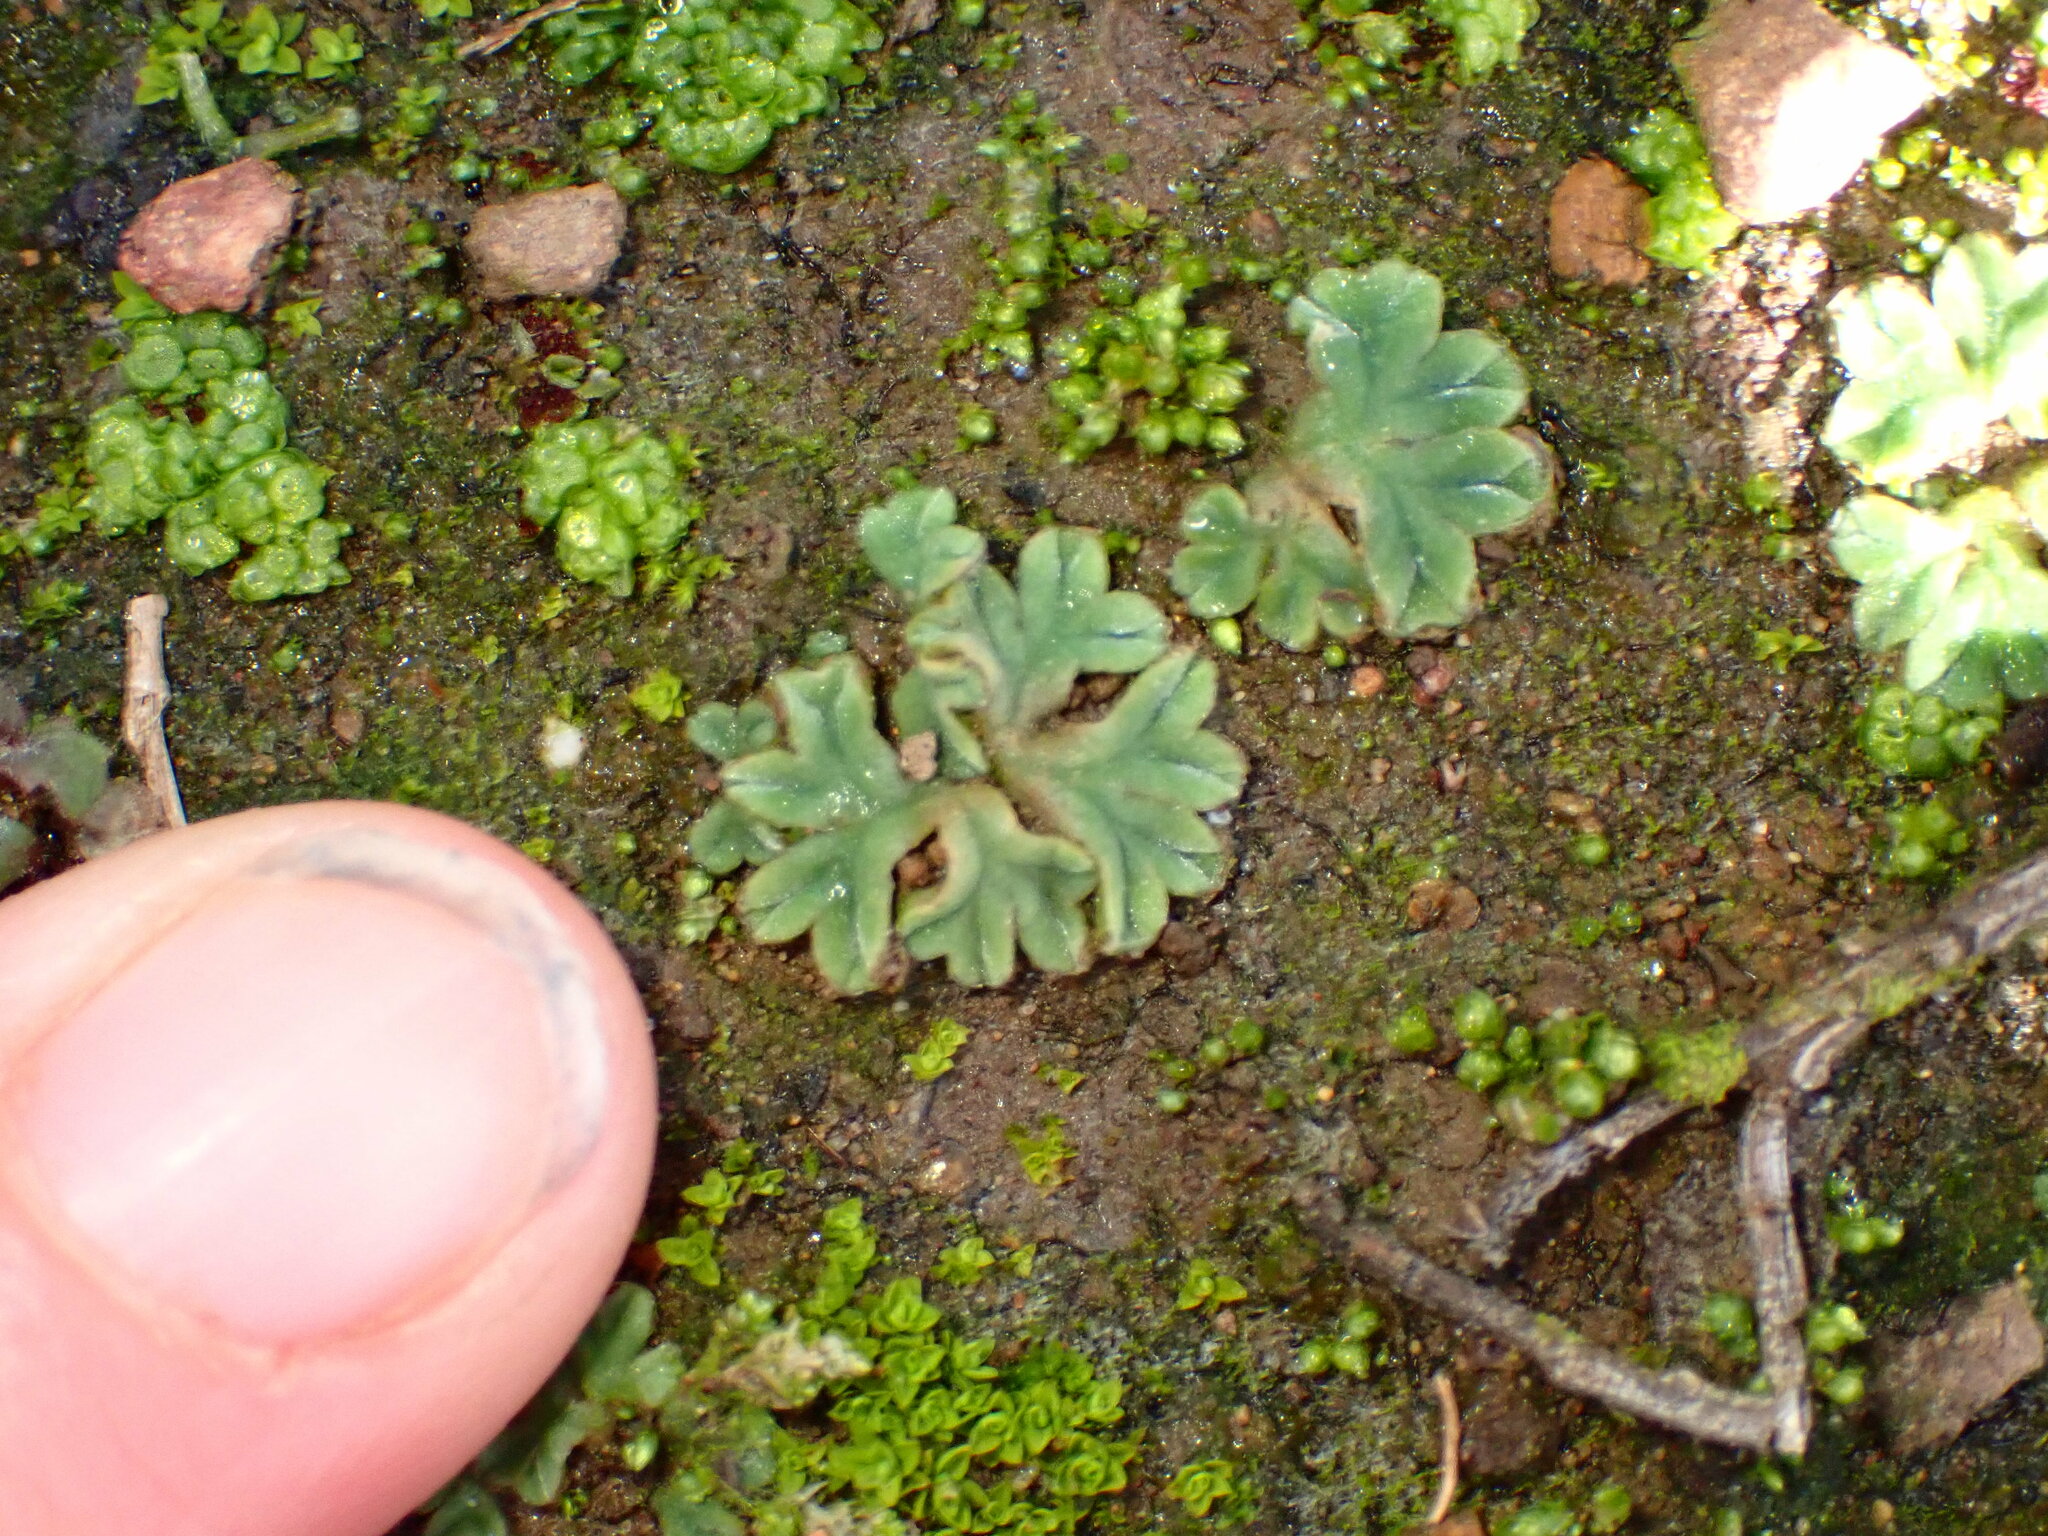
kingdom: Plantae
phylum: Marchantiophyta
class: Marchantiopsida
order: Marchantiales
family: Ricciaceae
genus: Riccia
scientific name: Riccia sorocarpa
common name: Common crystalwort
